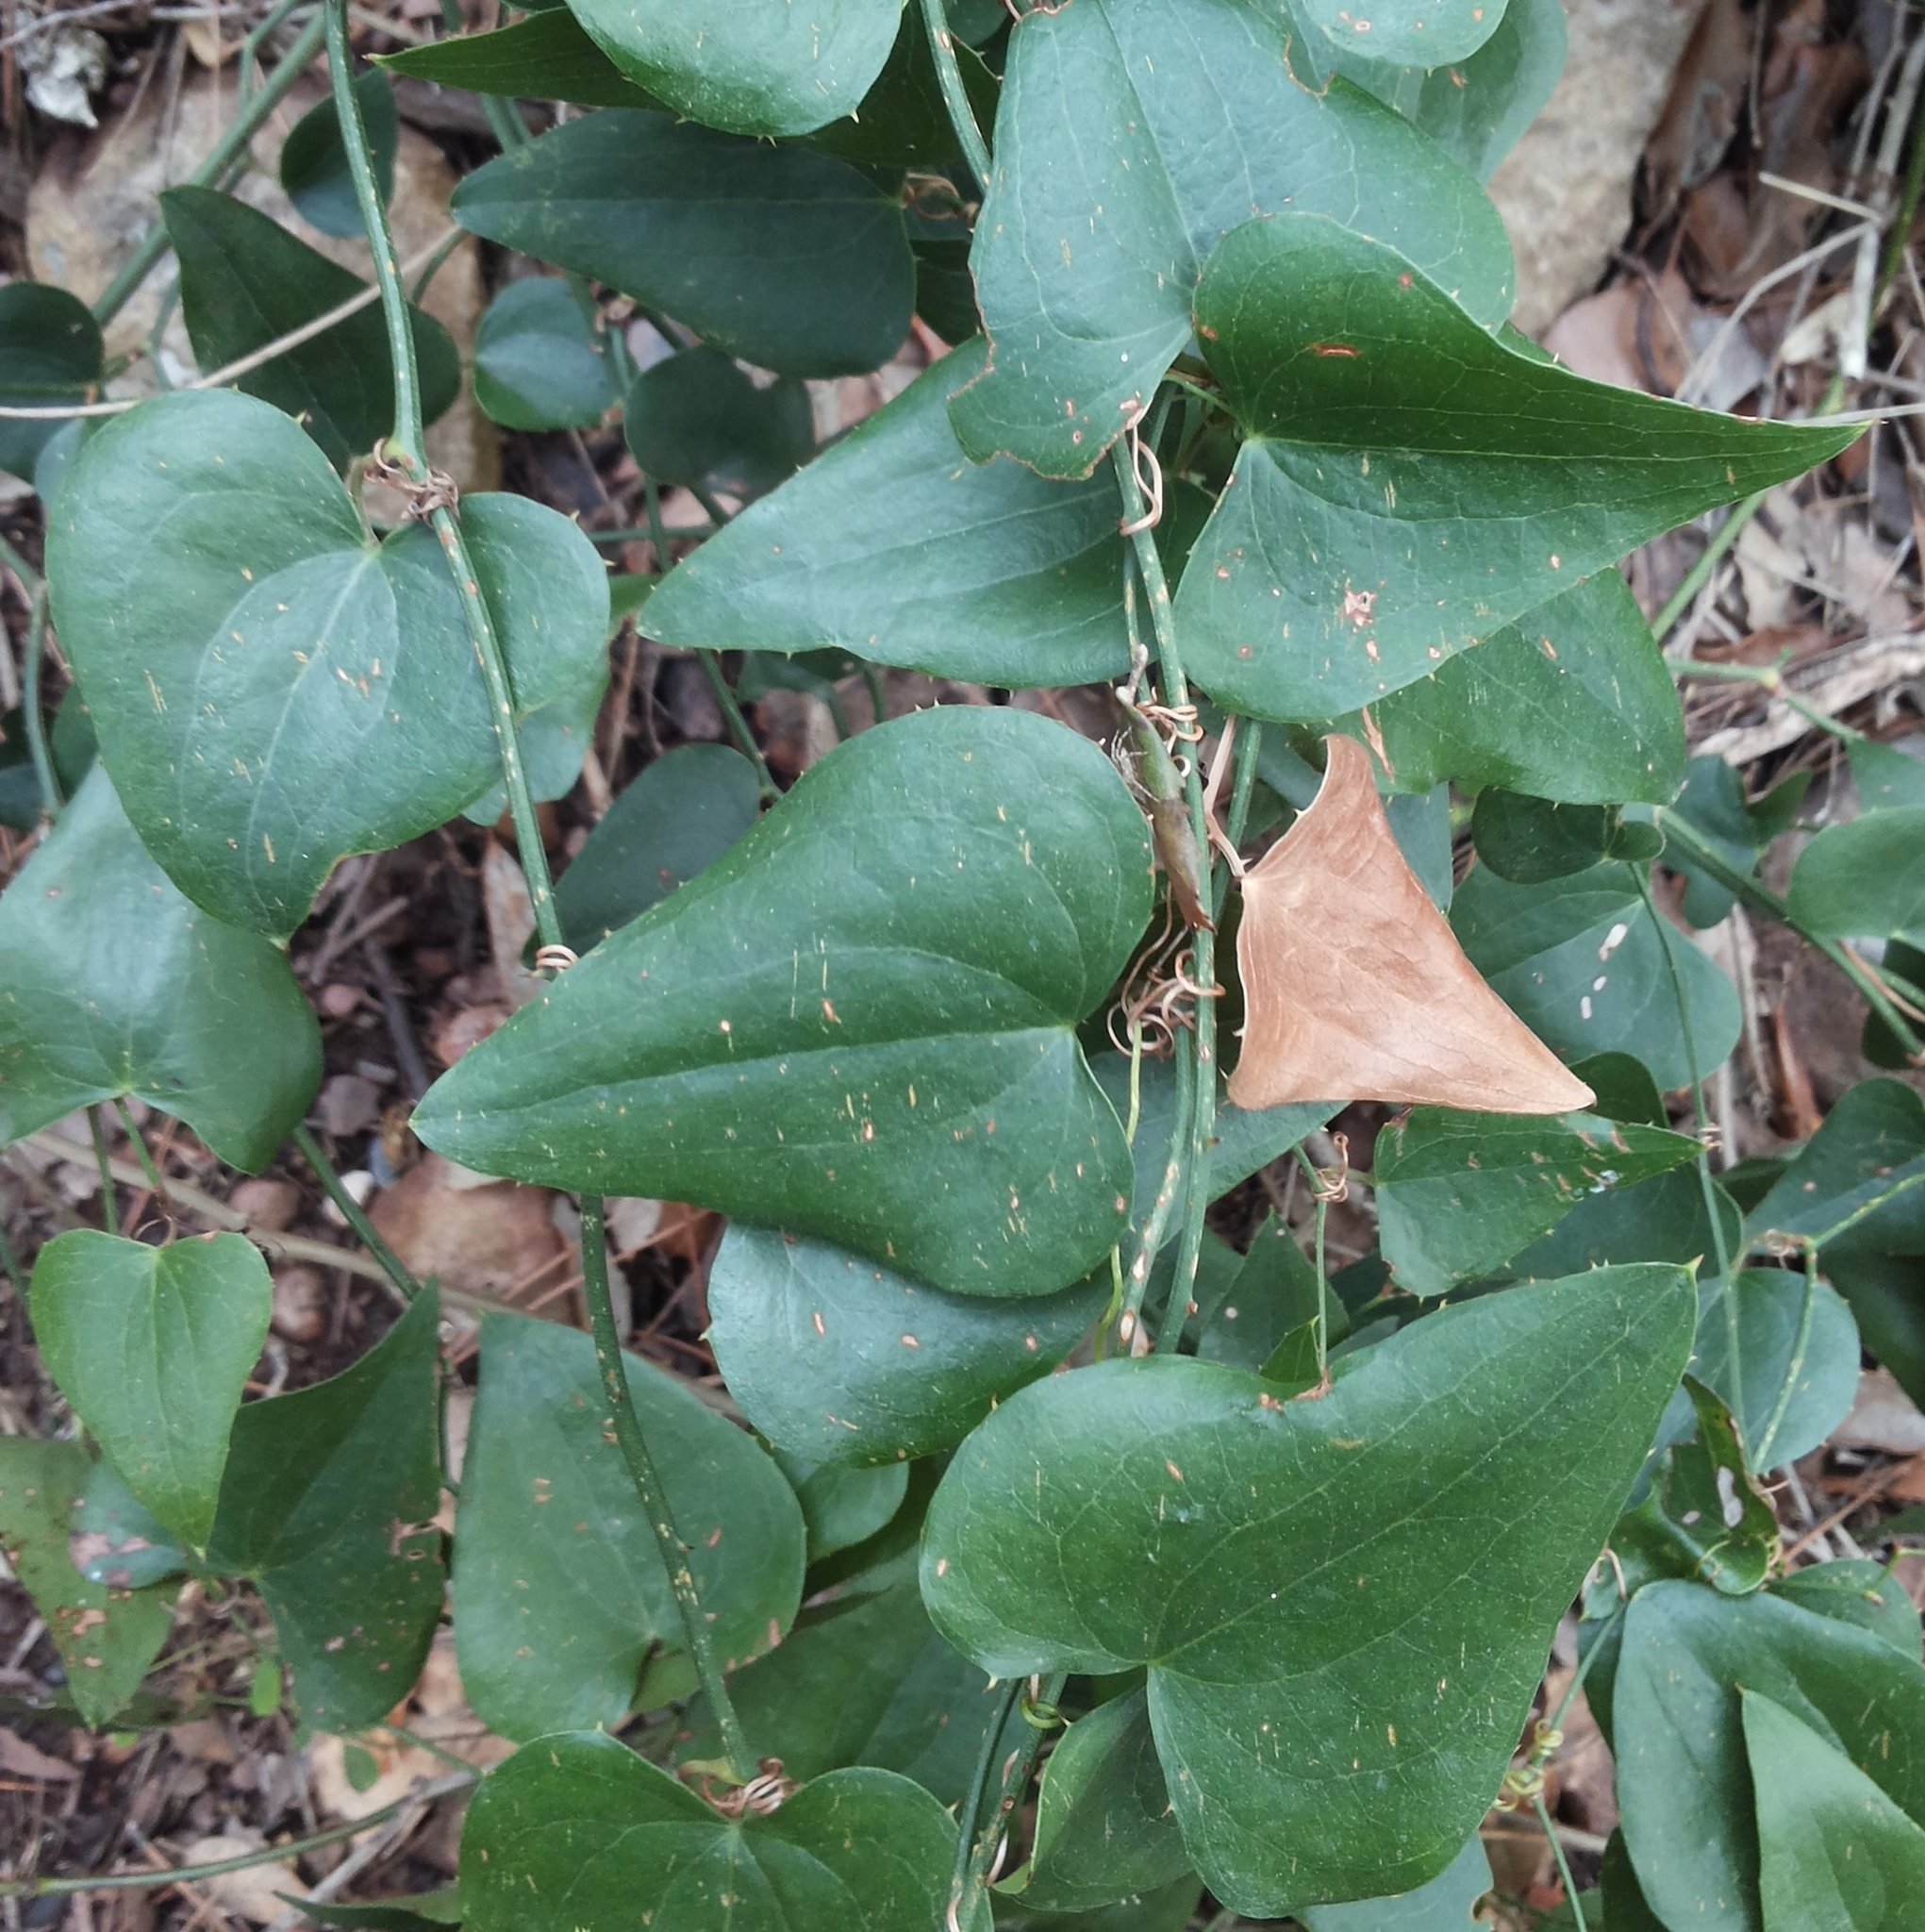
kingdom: Plantae
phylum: Tracheophyta
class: Liliopsida
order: Liliales
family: Smilacaceae
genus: Smilax
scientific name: Smilax aspera
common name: Common smilax
